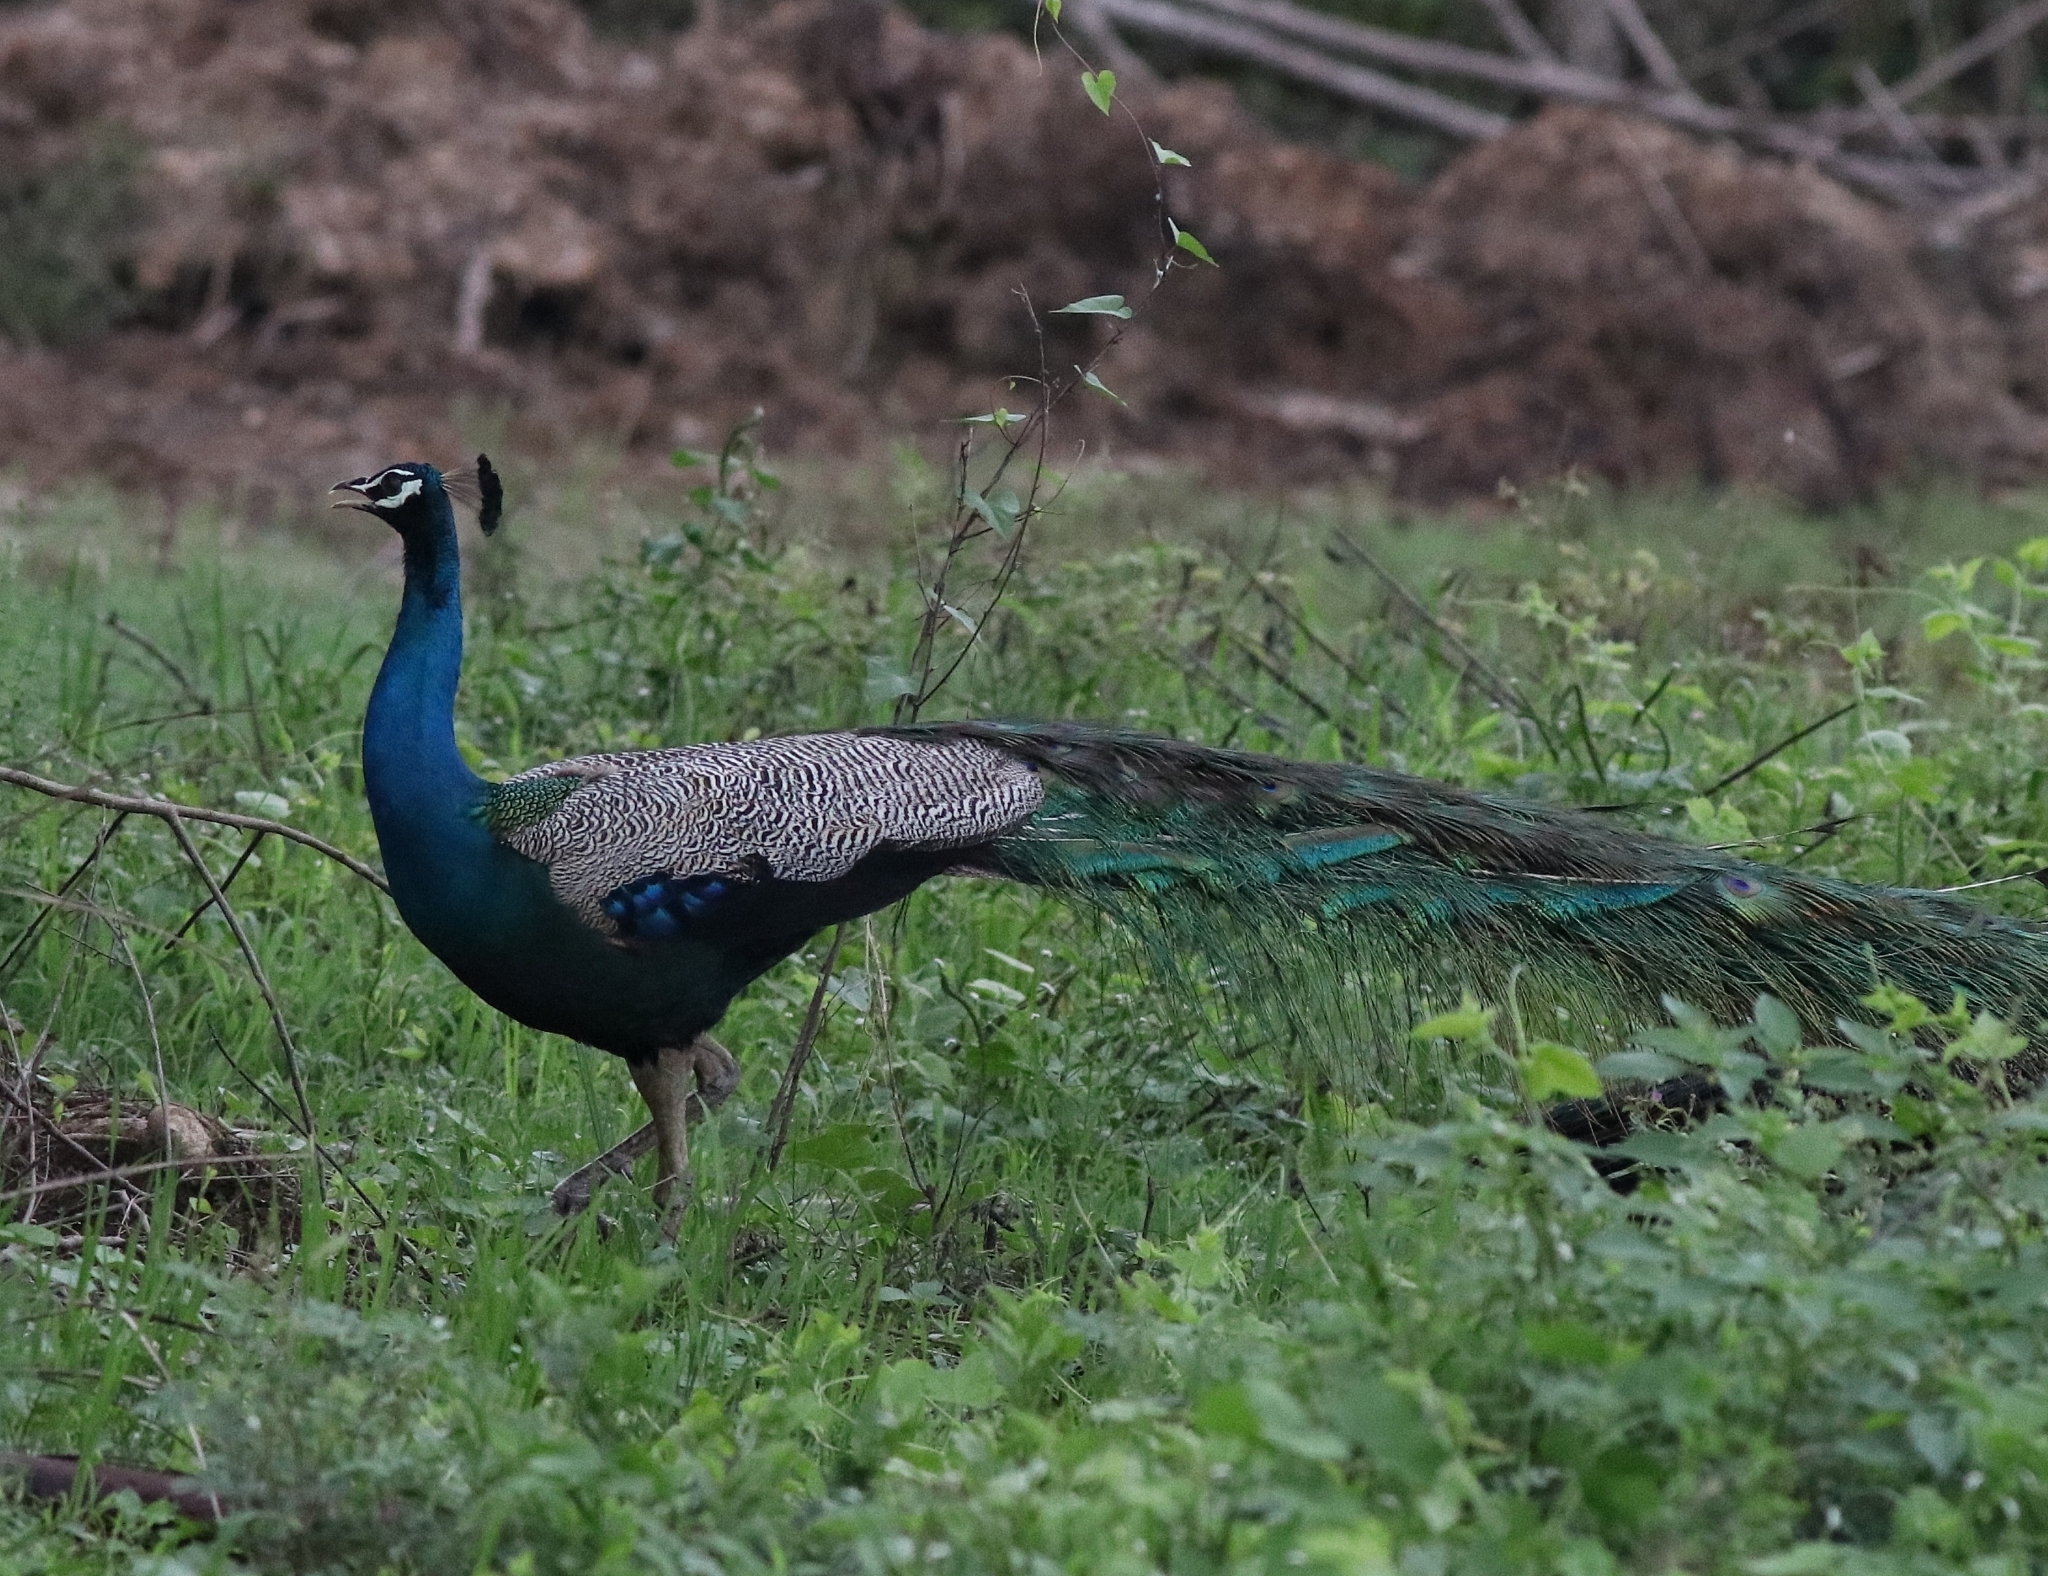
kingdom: Animalia
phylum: Chordata
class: Aves
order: Galliformes
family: Phasianidae
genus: Pavo
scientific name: Pavo cristatus
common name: Indian peafowl
